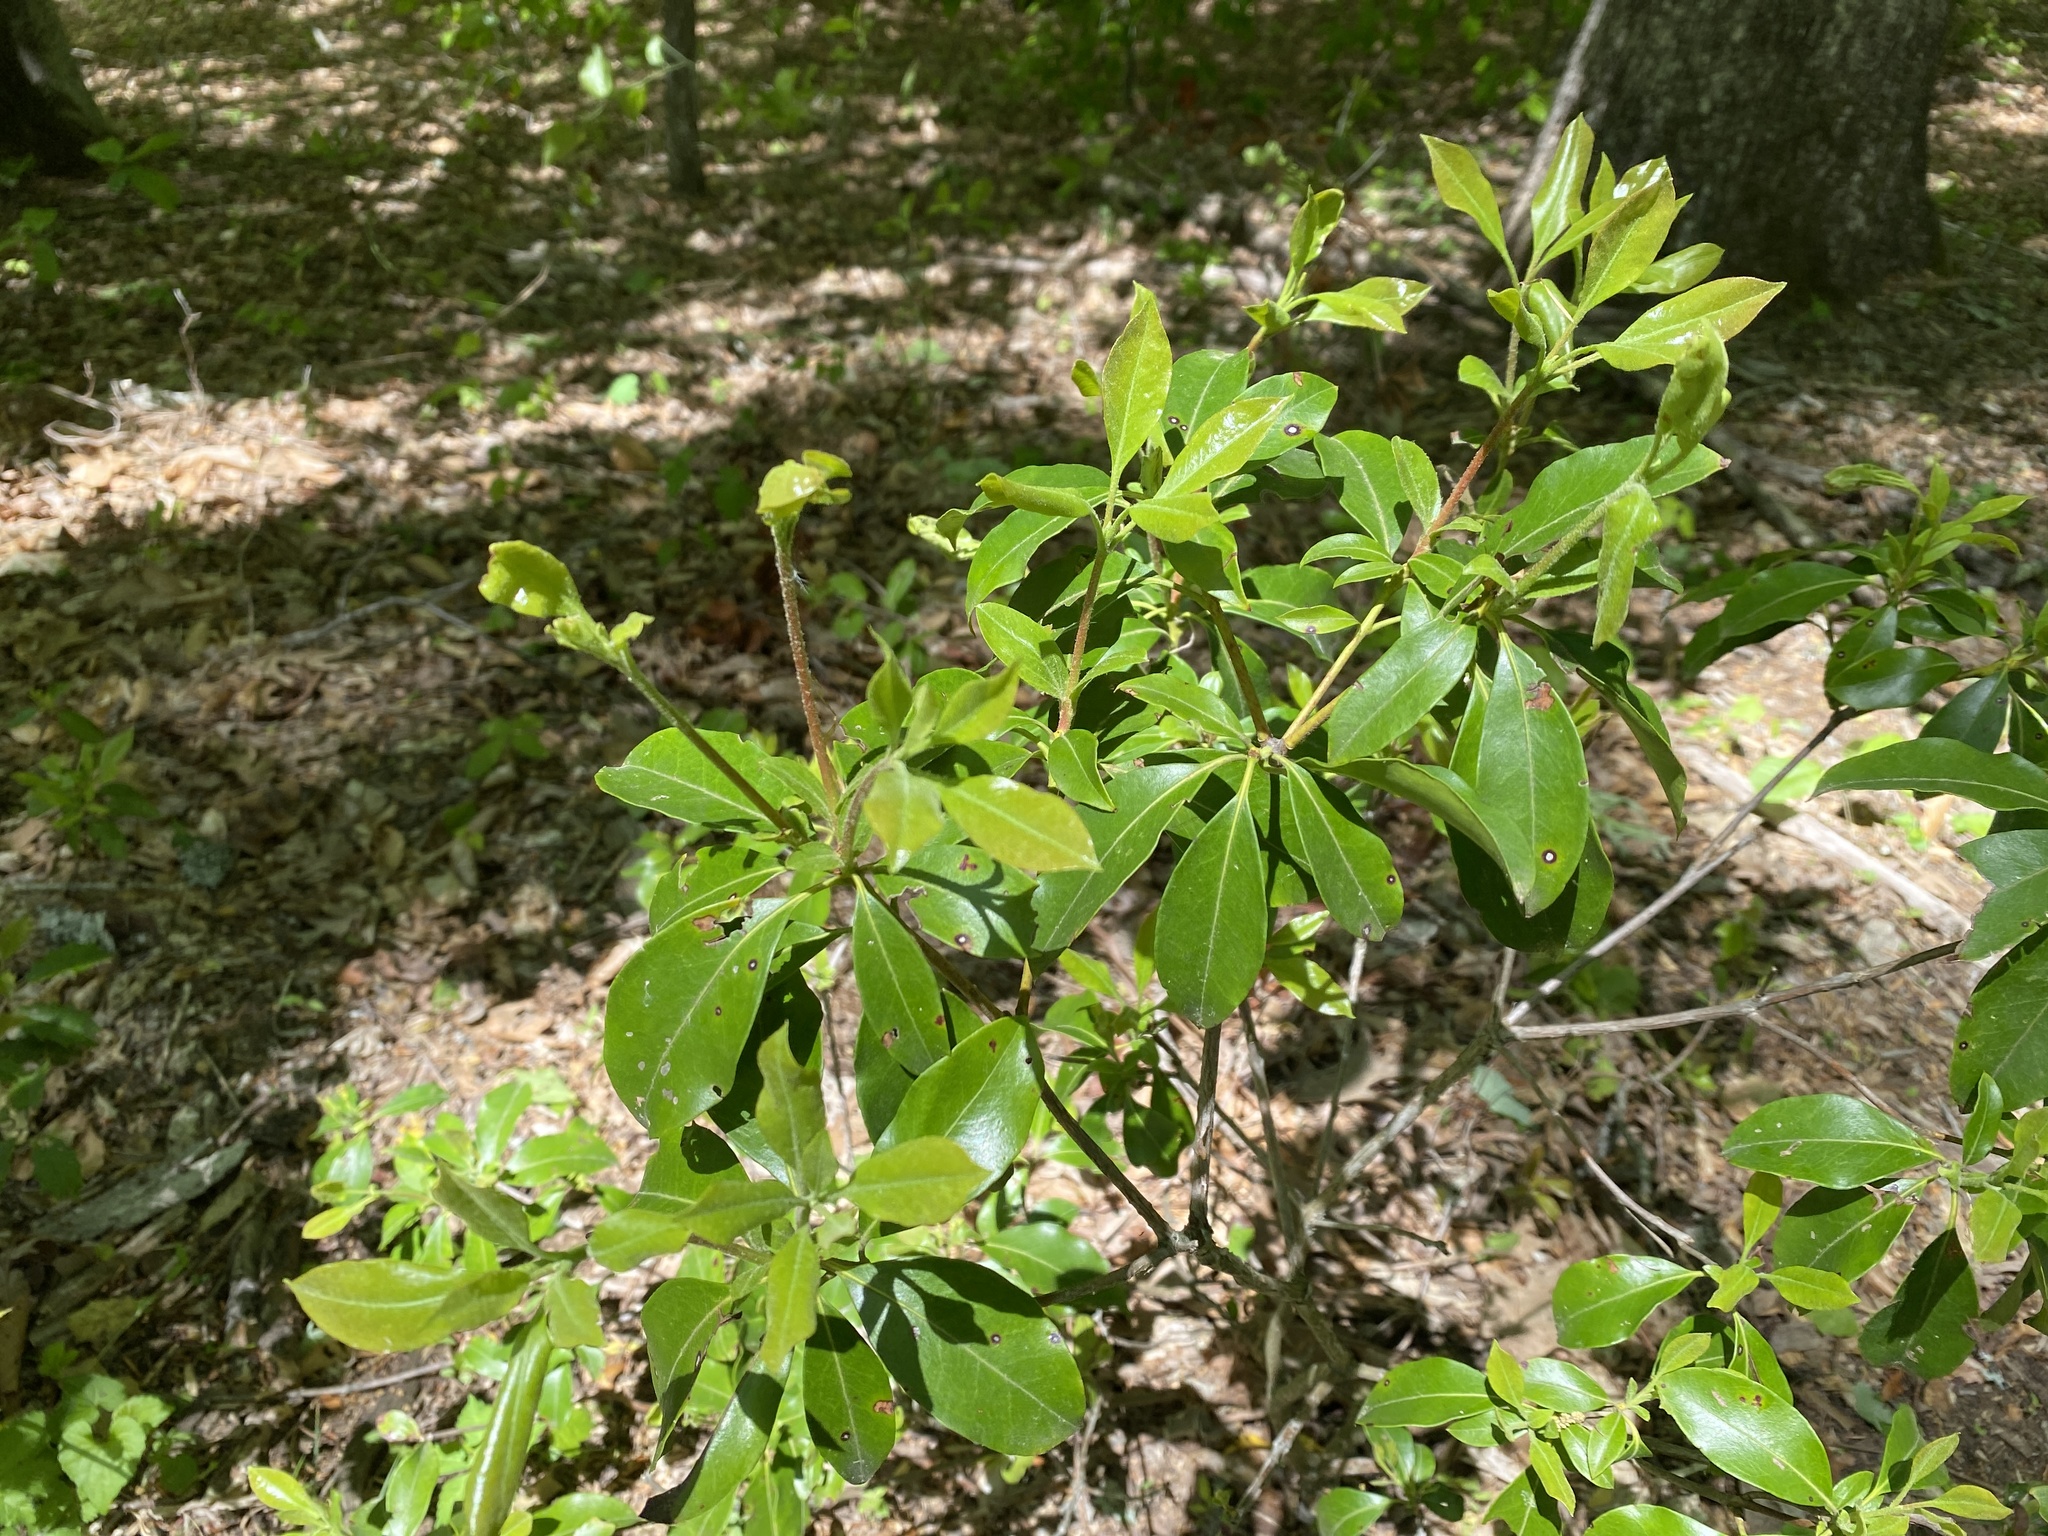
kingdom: Plantae
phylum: Tracheophyta
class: Magnoliopsida
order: Ericales
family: Ericaceae
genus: Kalmia
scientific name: Kalmia latifolia
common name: Mountain-laurel
